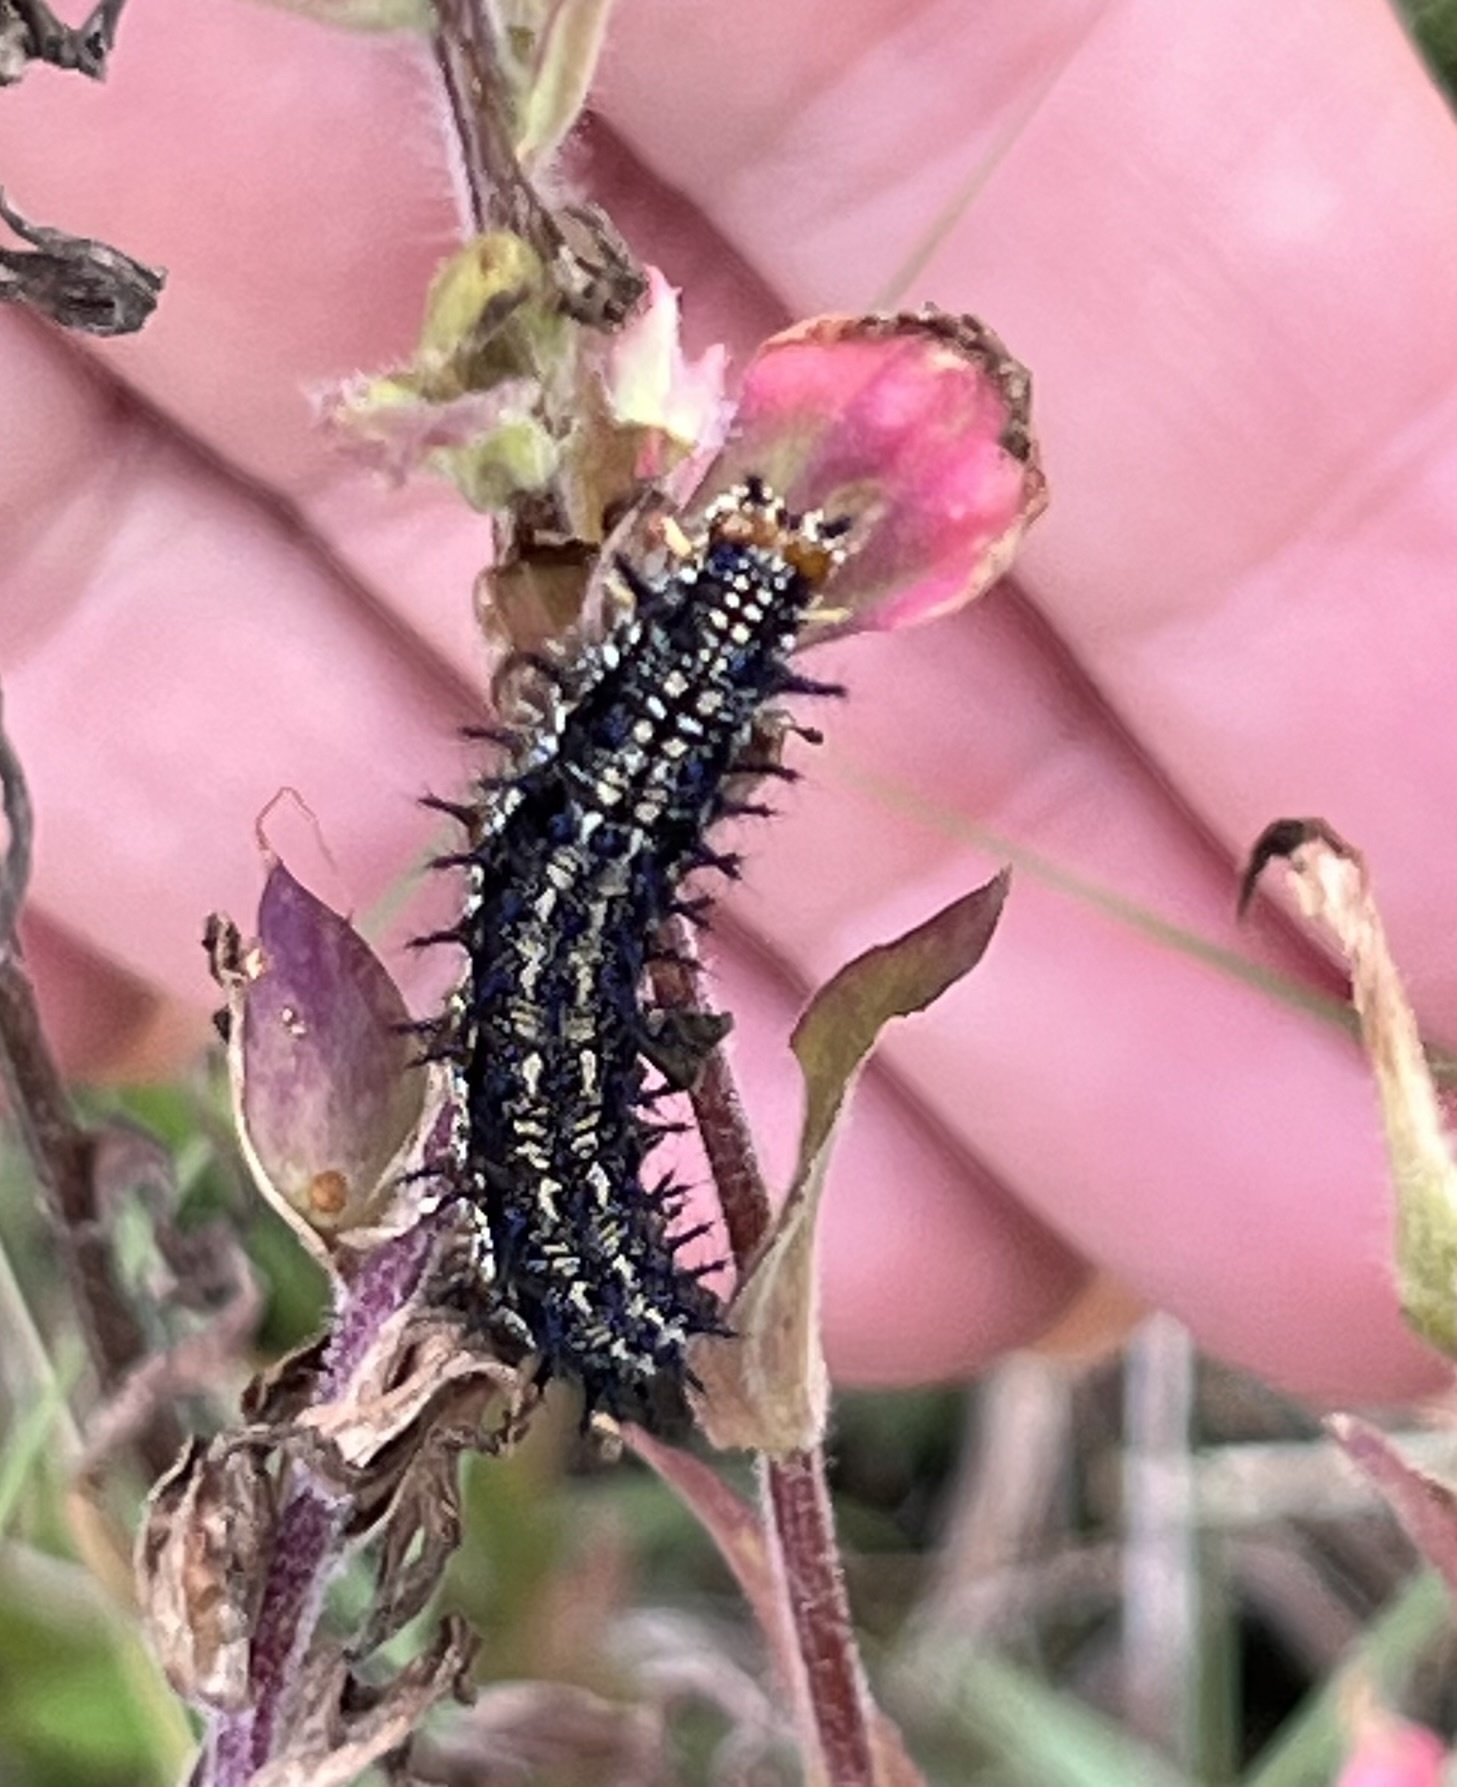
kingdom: Animalia
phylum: Arthropoda
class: Insecta
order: Lepidoptera
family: Nymphalidae
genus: Junonia
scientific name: Junonia coenia
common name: Common buckeye
